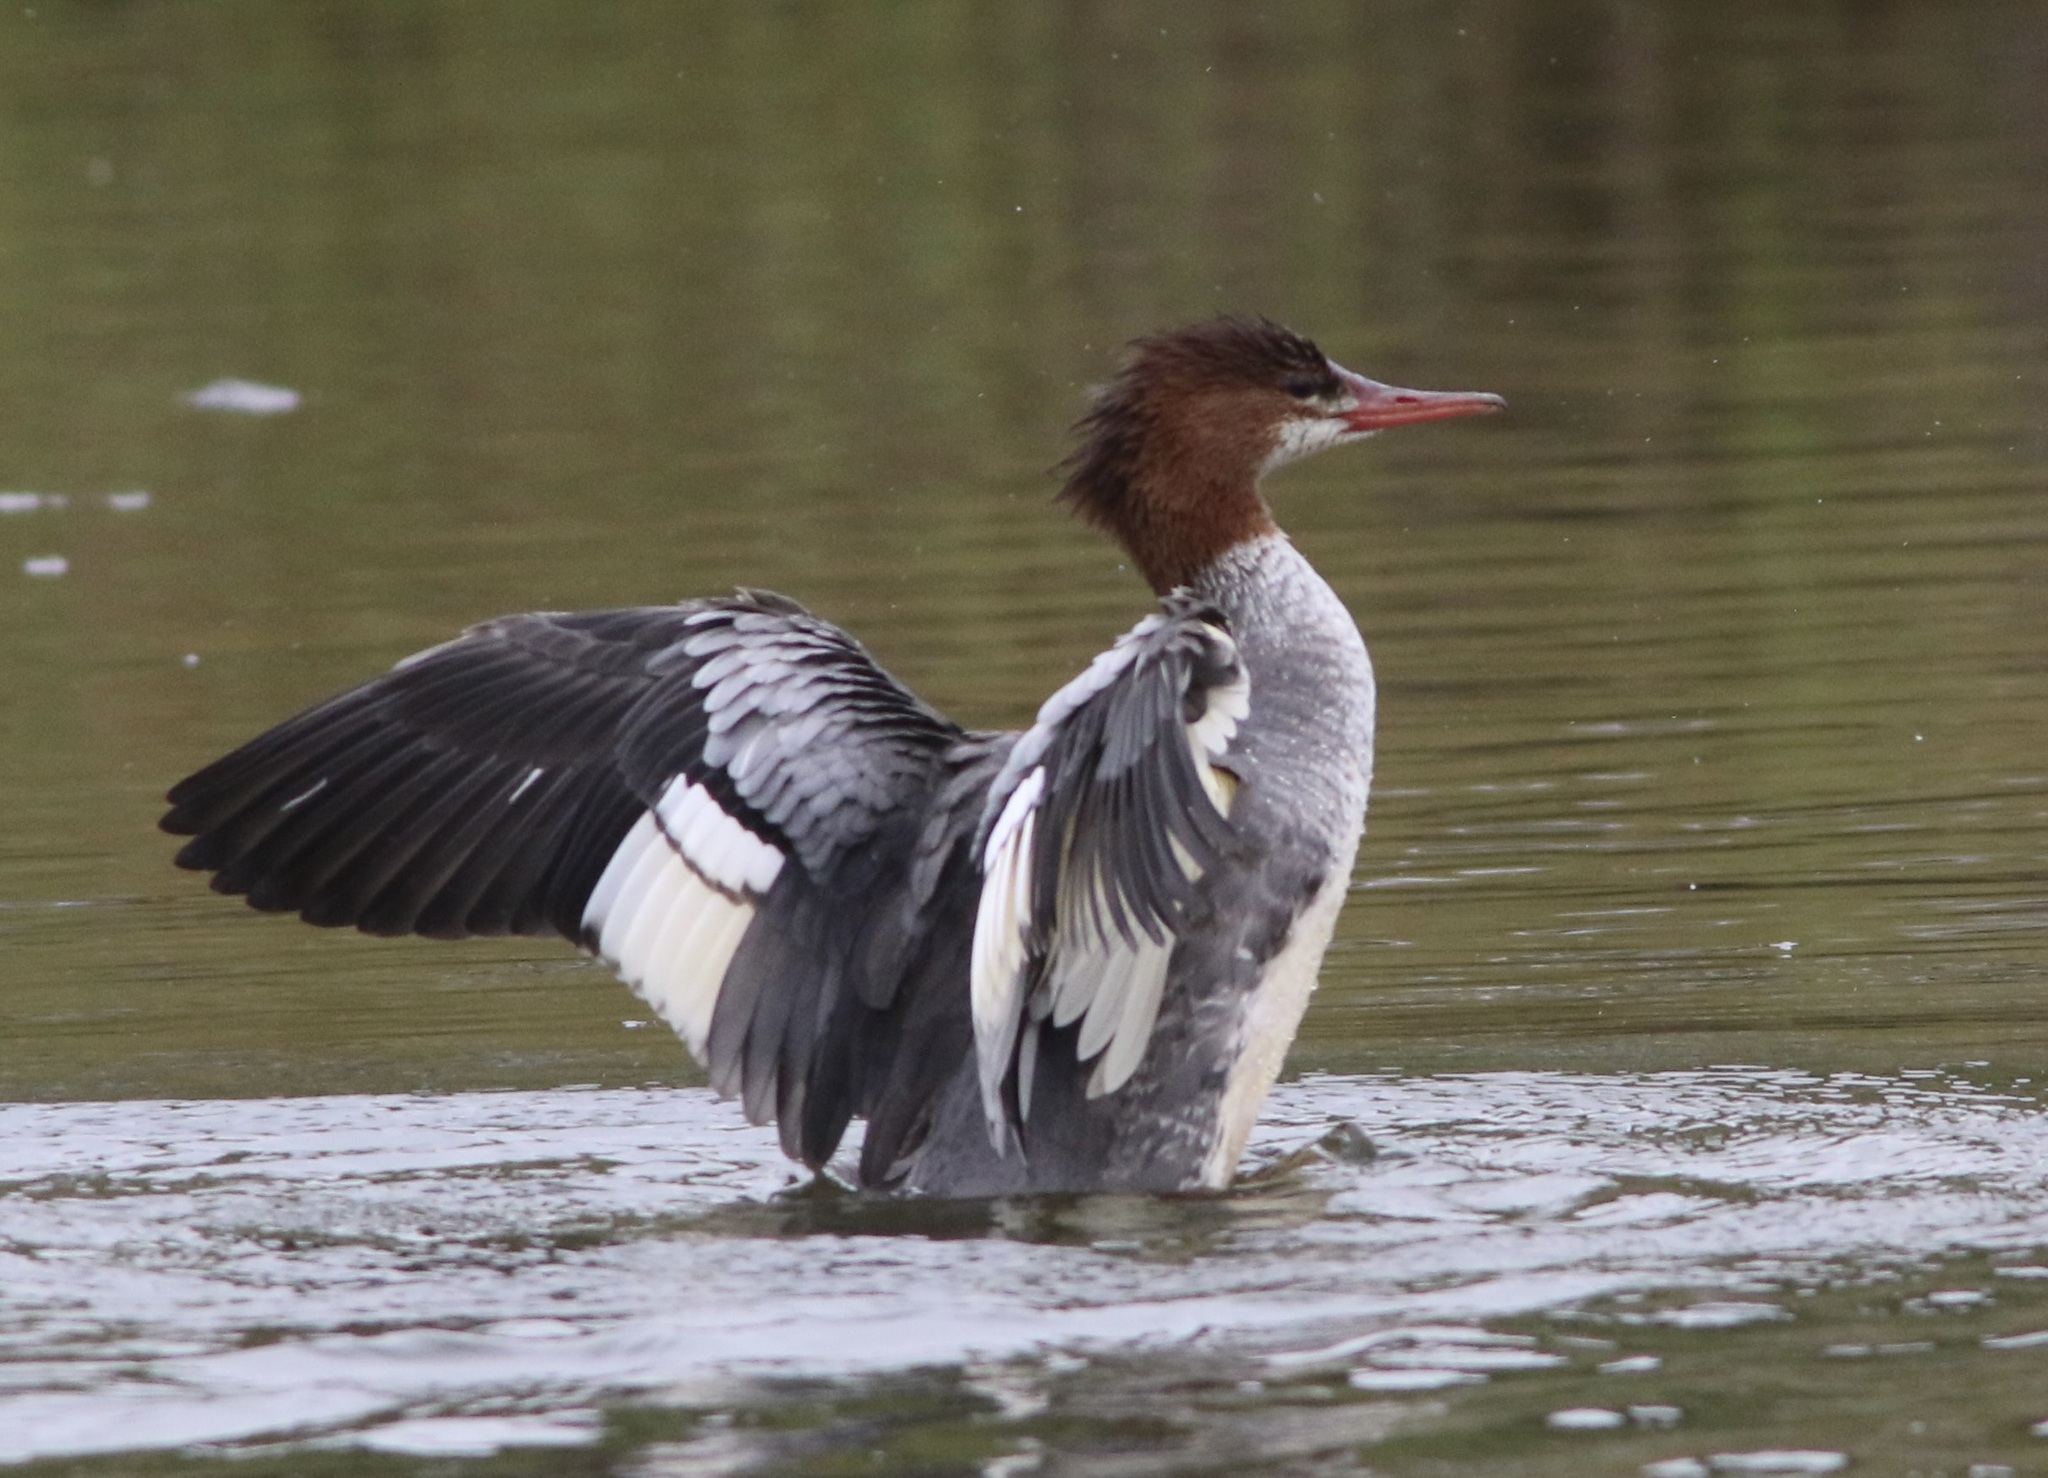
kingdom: Animalia
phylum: Chordata
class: Aves
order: Anseriformes
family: Anatidae
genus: Mergus
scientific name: Mergus merganser
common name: Common merganser
